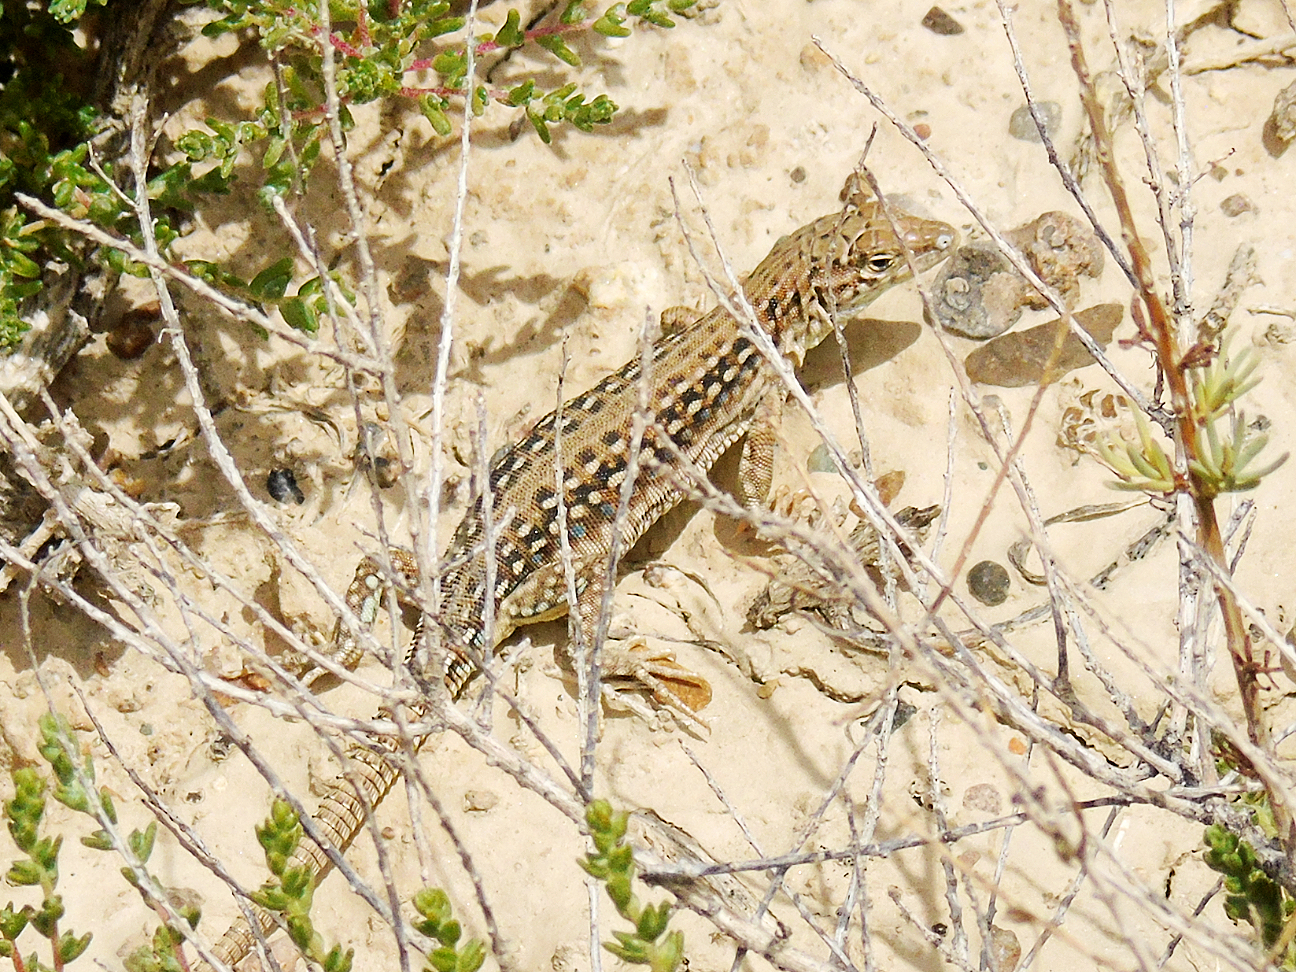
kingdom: Animalia
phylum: Chordata
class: Squamata
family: Lacertidae
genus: Eremias
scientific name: Eremias szczerbaki
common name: Szczerbak’s racerunner
